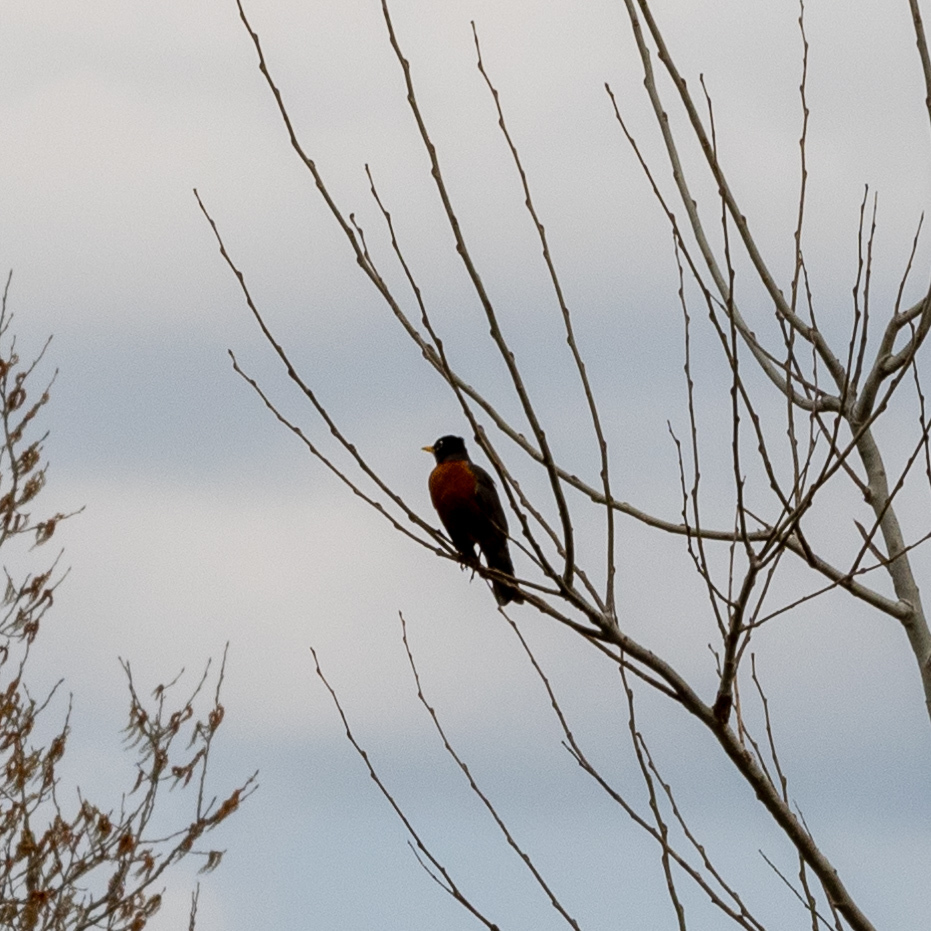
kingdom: Animalia
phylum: Chordata
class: Aves
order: Passeriformes
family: Turdidae
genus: Turdus
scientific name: Turdus migratorius
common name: American robin
